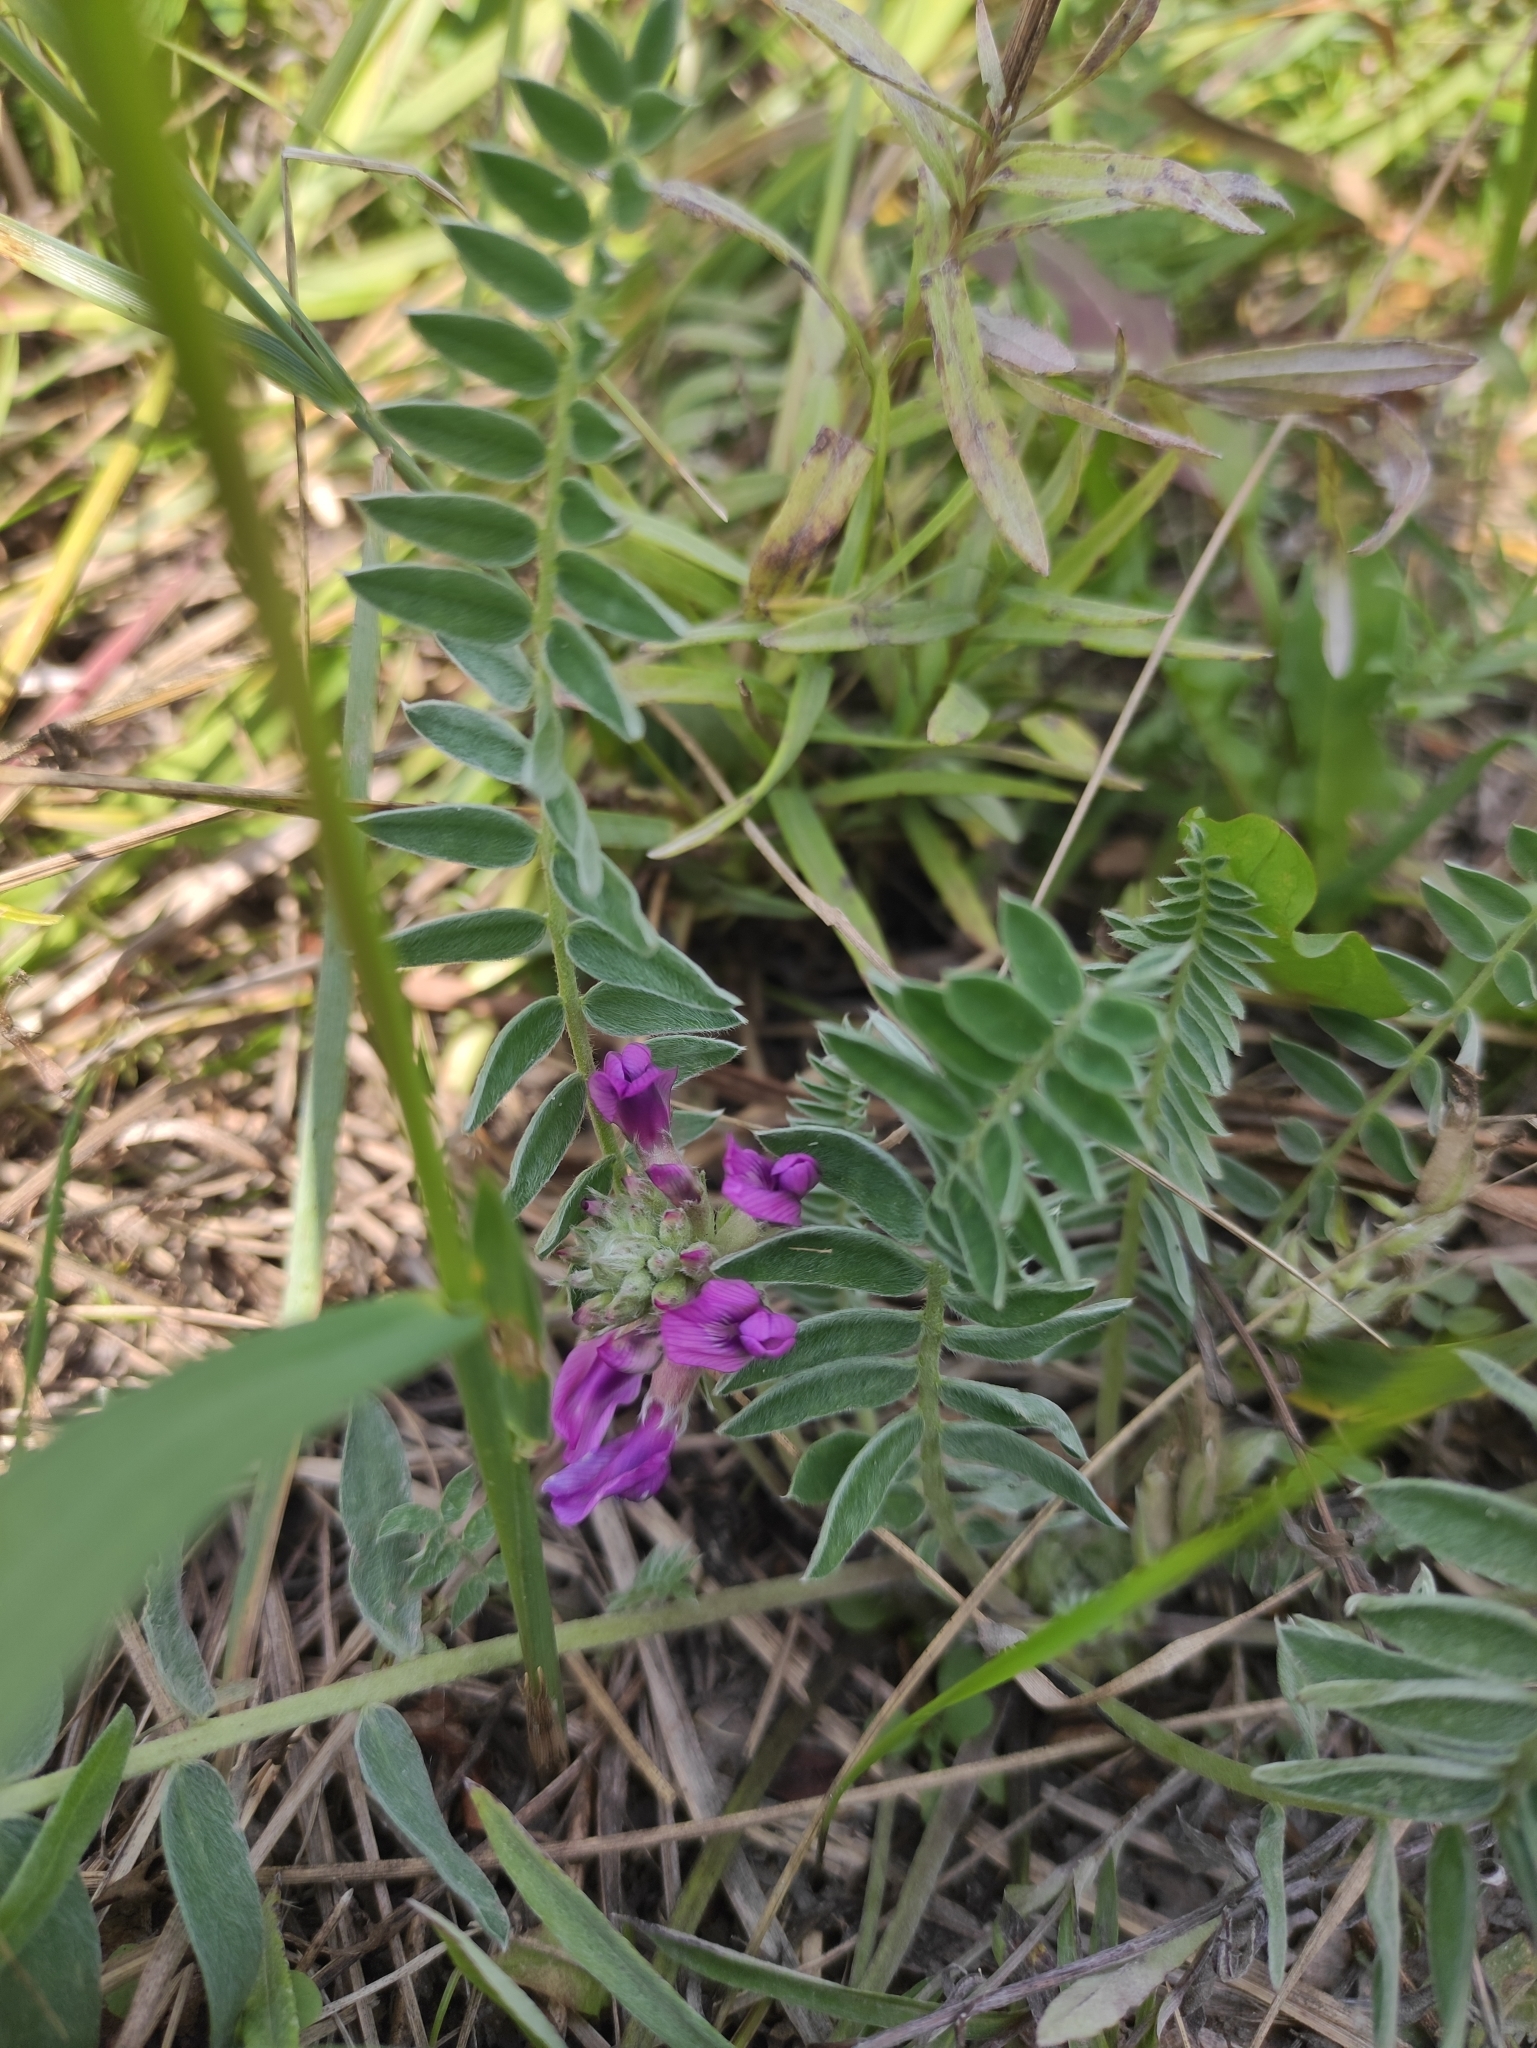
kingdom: Plantae
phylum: Tracheophyta
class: Magnoliopsida
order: Fabales
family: Fabaceae
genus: Oxytropis
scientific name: Oxytropis strobilacea
